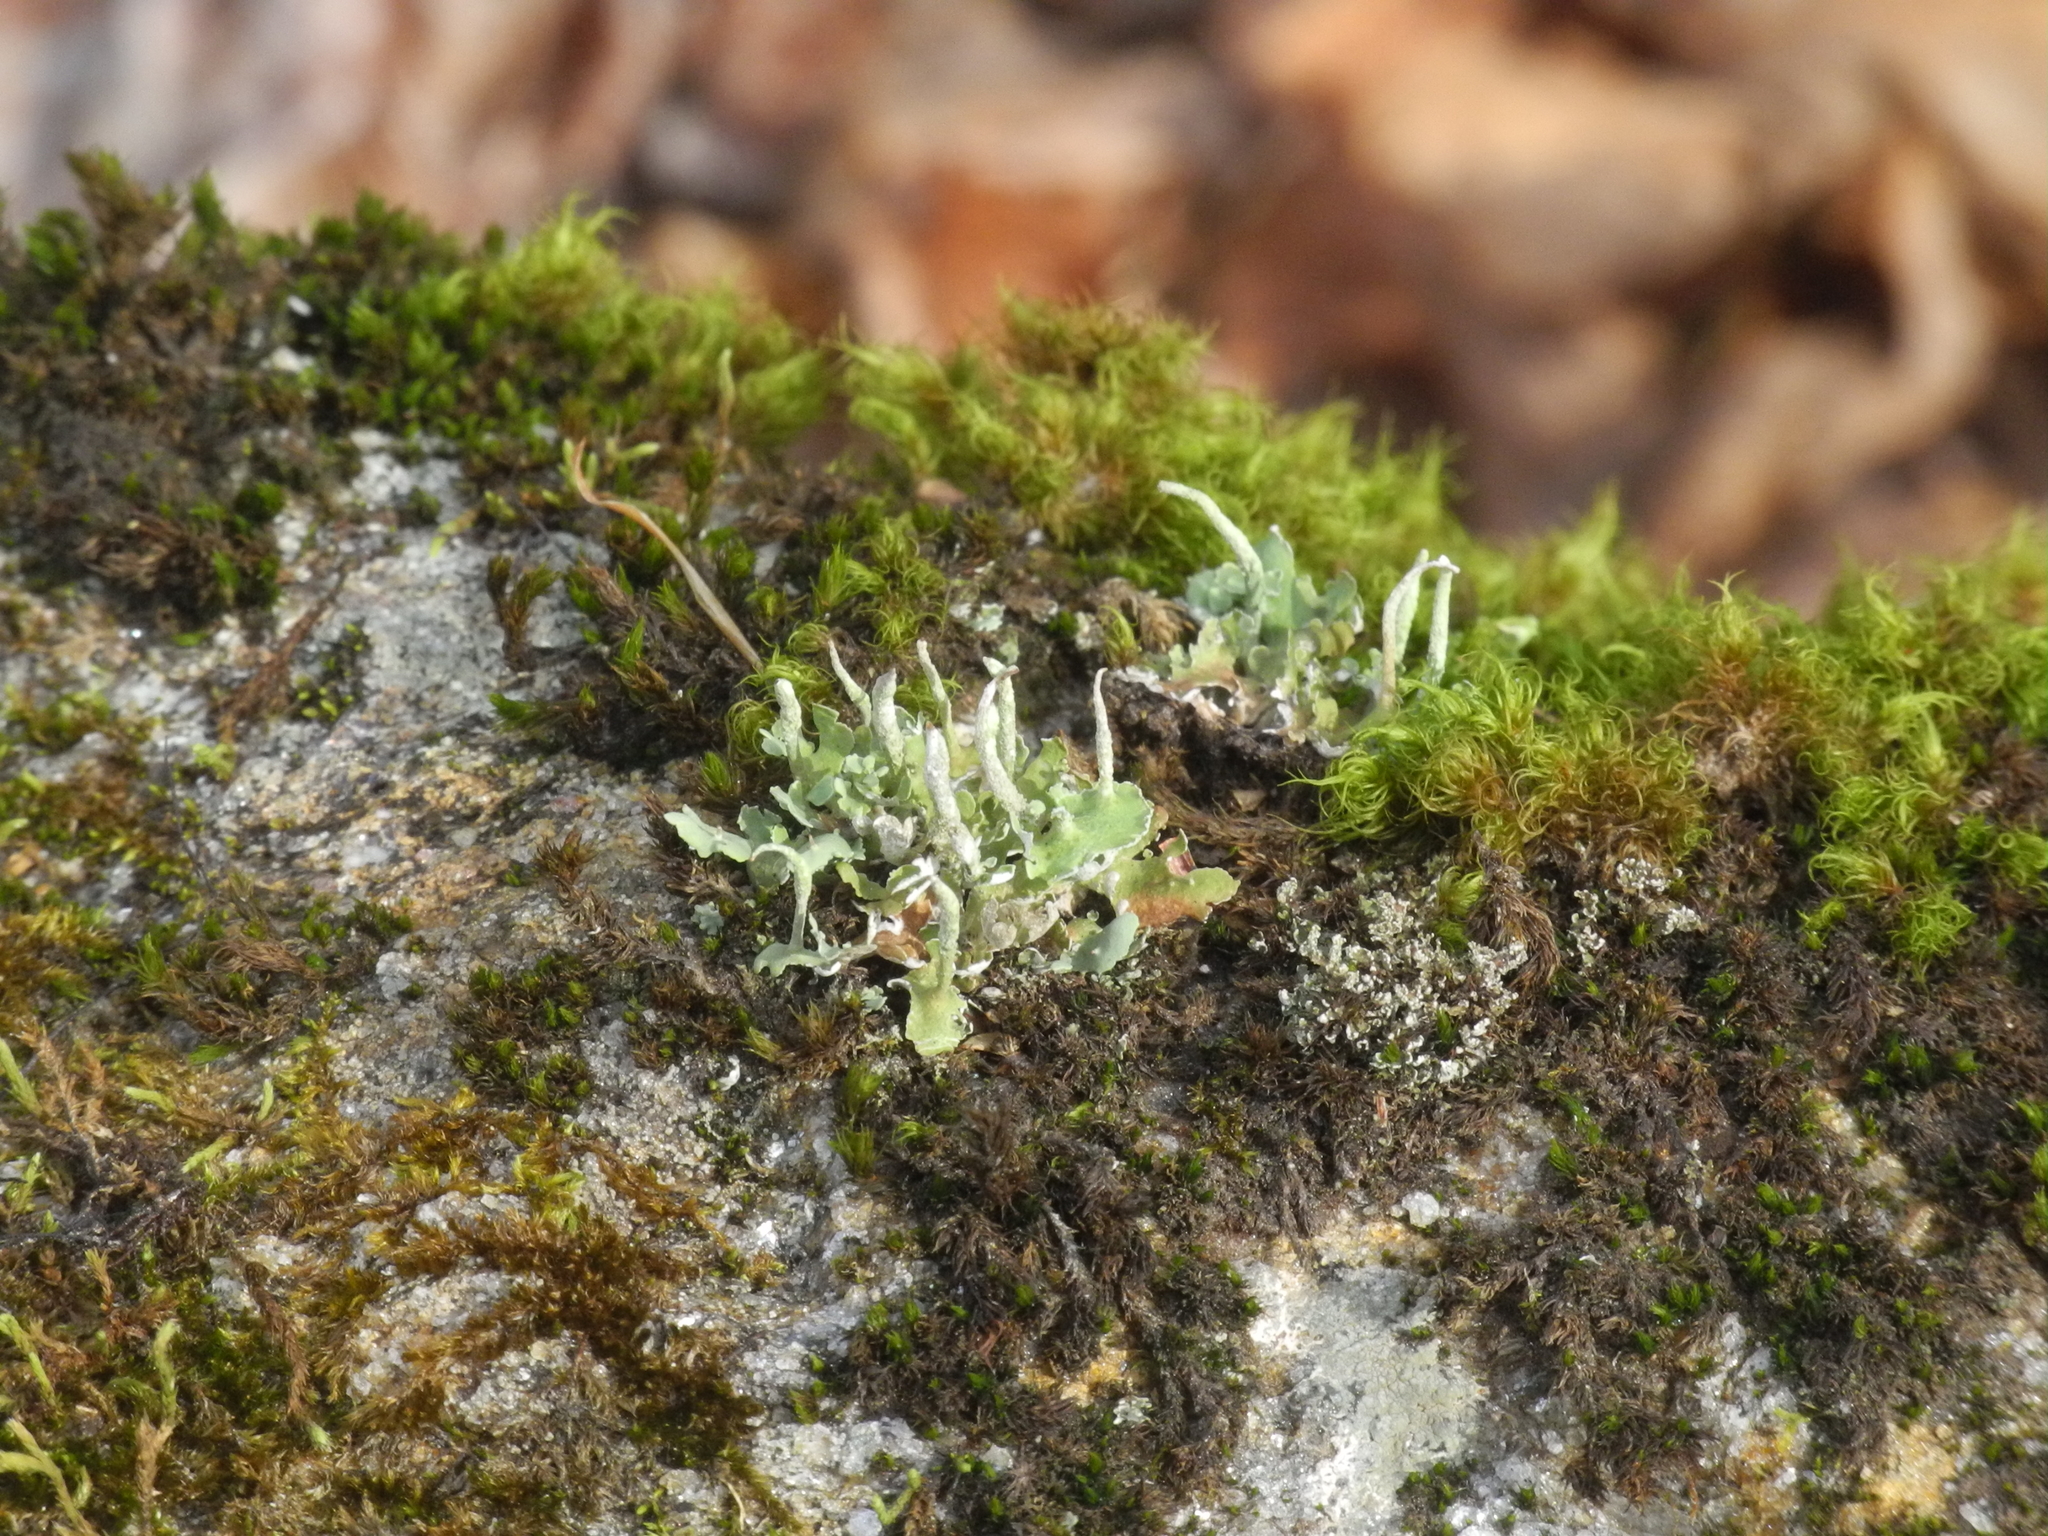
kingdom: Fungi
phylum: Ascomycota
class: Lecanoromycetes
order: Lecanorales
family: Cladoniaceae
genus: Cladonia
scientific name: Cladonia ochrochlora
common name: Smooth-footed powderhorn
